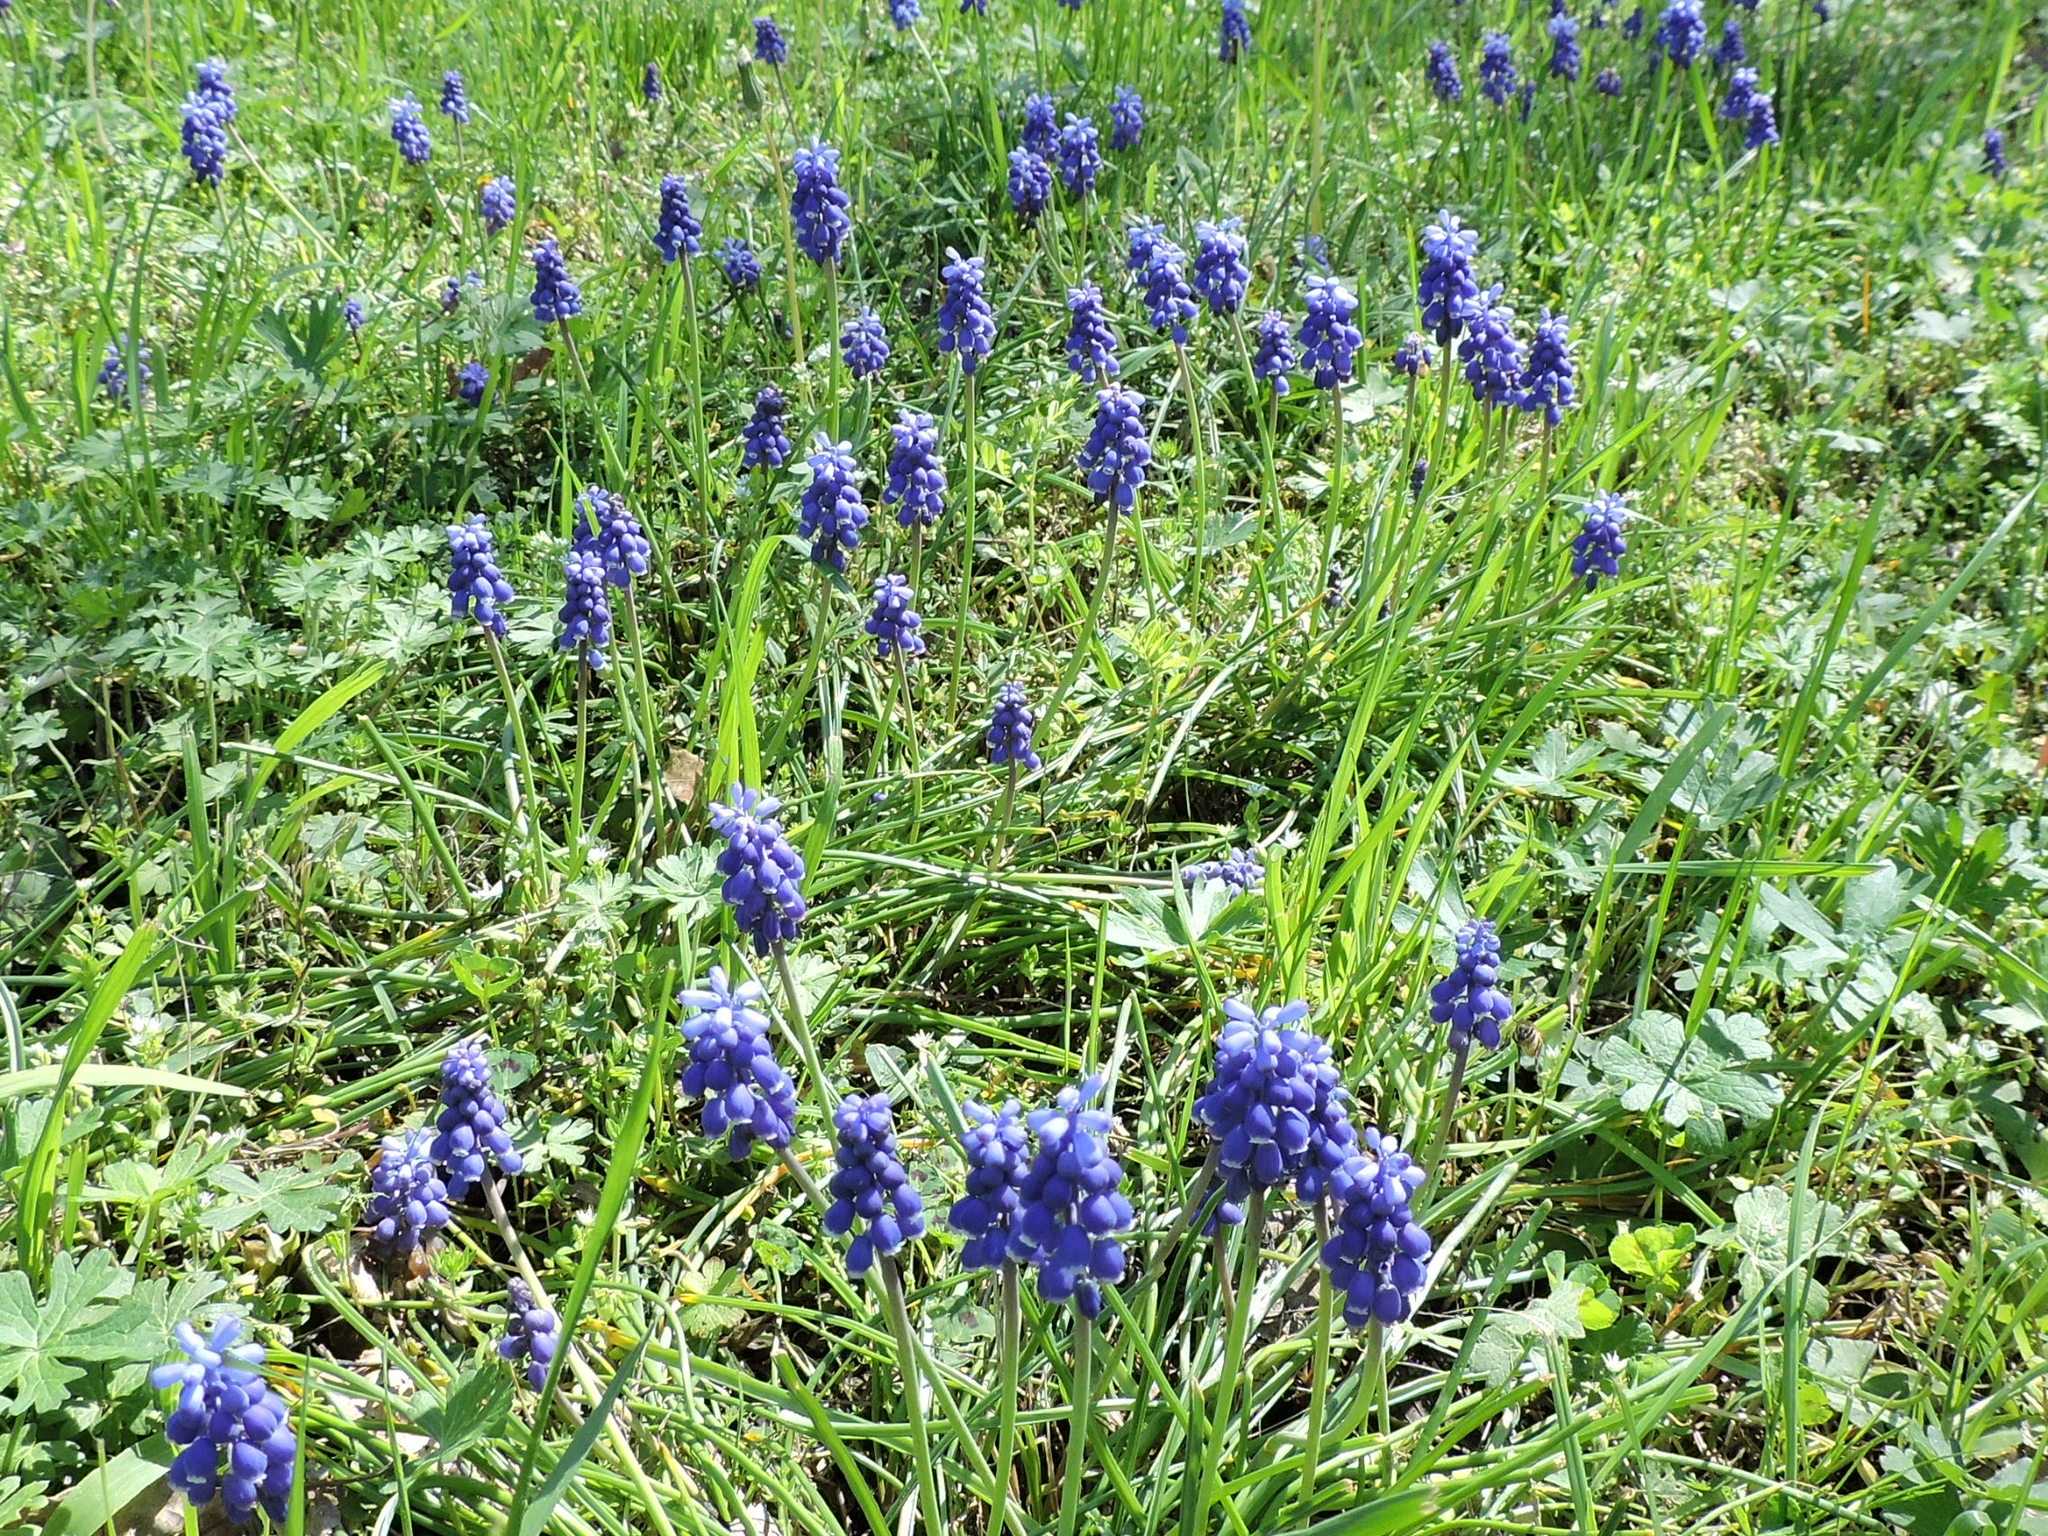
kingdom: Plantae
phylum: Tracheophyta
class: Liliopsida
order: Asparagales
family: Asparagaceae
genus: Muscari
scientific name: Muscari neglectum
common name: Grape-hyacinth
